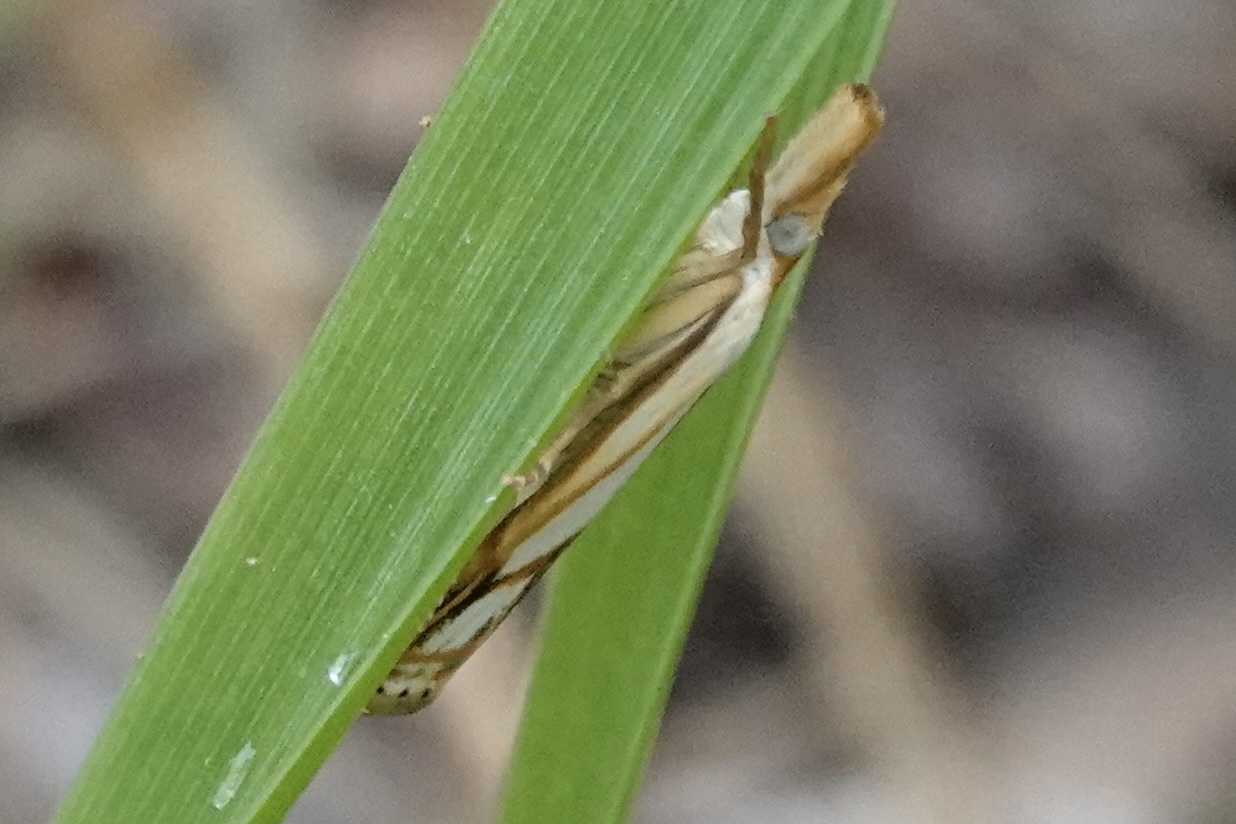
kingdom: Animalia
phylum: Arthropoda
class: Insecta
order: Lepidoptera
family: Crambidae
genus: Crambus
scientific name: Crambus agitatellus
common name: Double-banded grass-veneer
